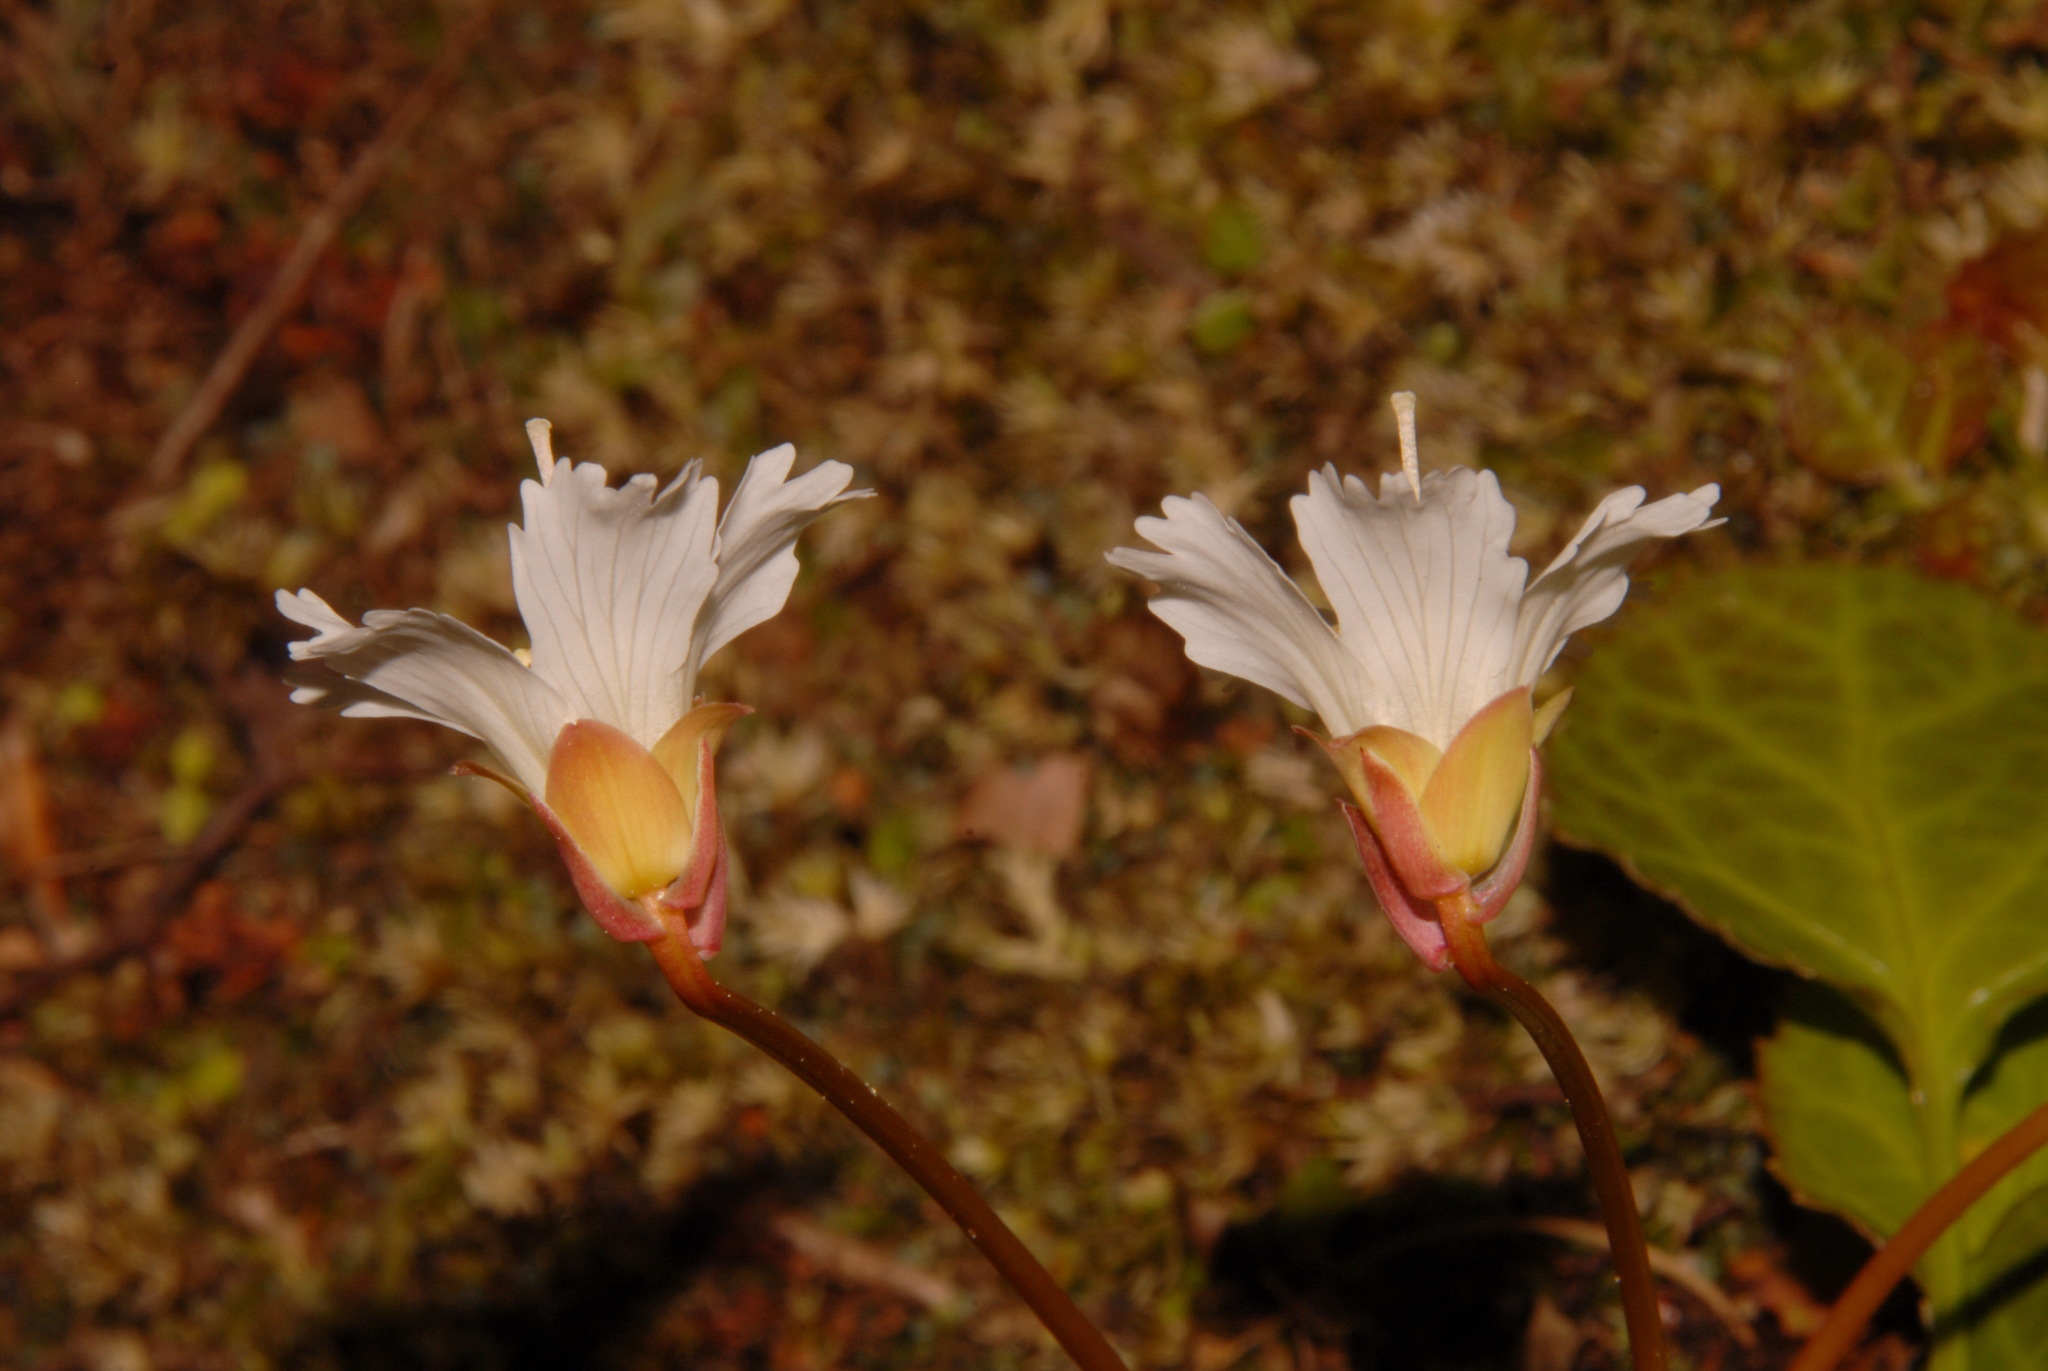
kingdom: Plantae
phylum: Tracheophyta
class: Magnoliopsida
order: Ericales
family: Diapensiaceae
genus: Shortia
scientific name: Shortia galacifolia
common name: Shortia
